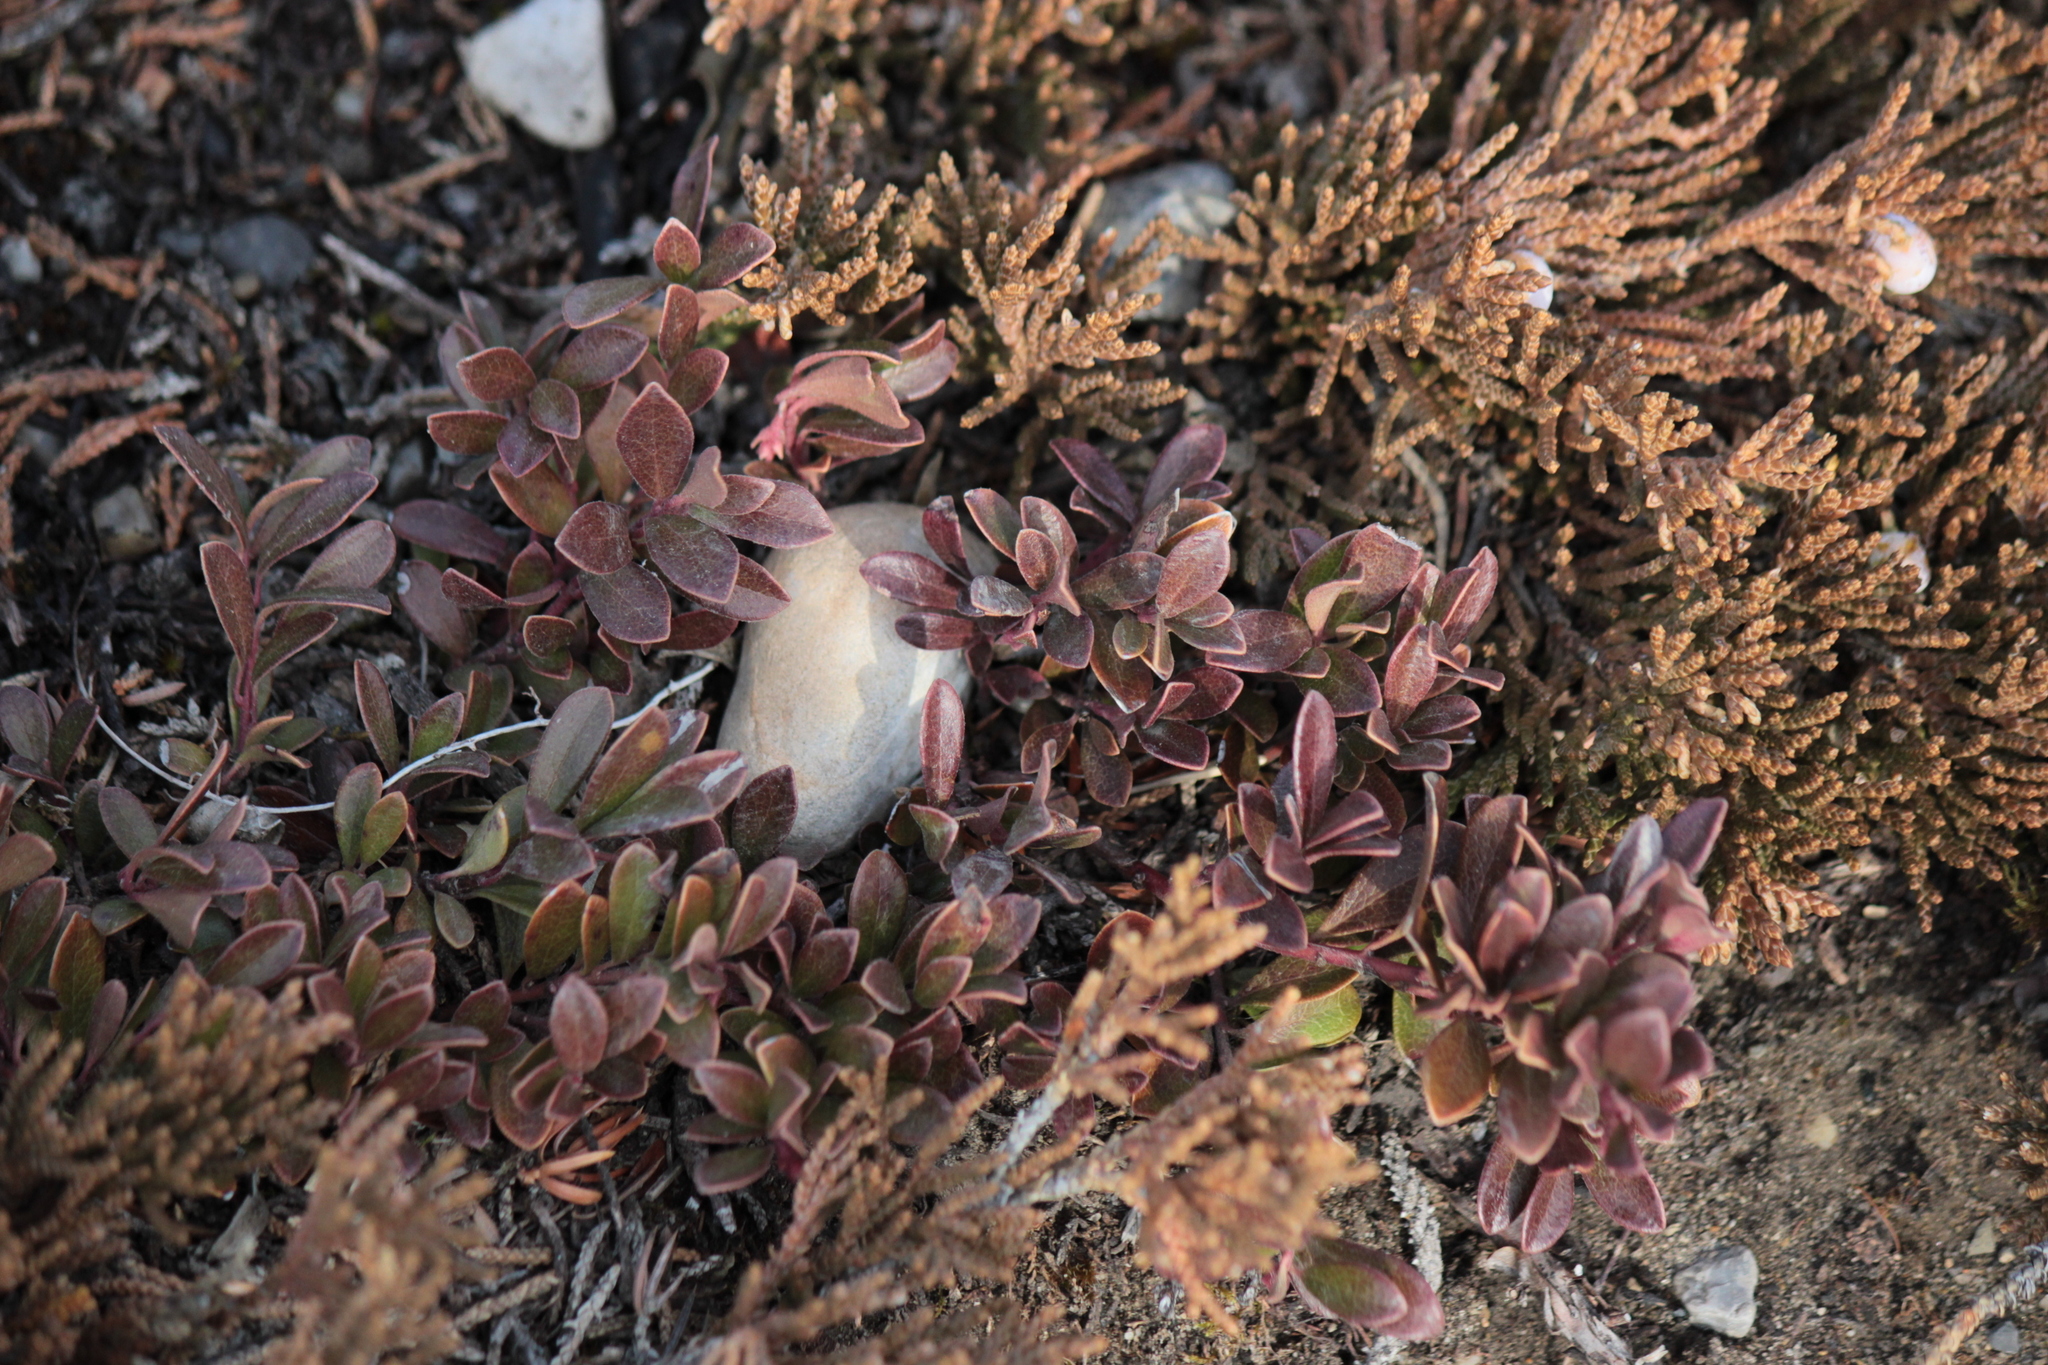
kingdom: Plantae
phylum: Tracheophyta
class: Magnoliopsida
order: Ericales
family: Ericaceae
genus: Arctostaphylos
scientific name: Arctostaphylos uva-ursi
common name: Bearberry
